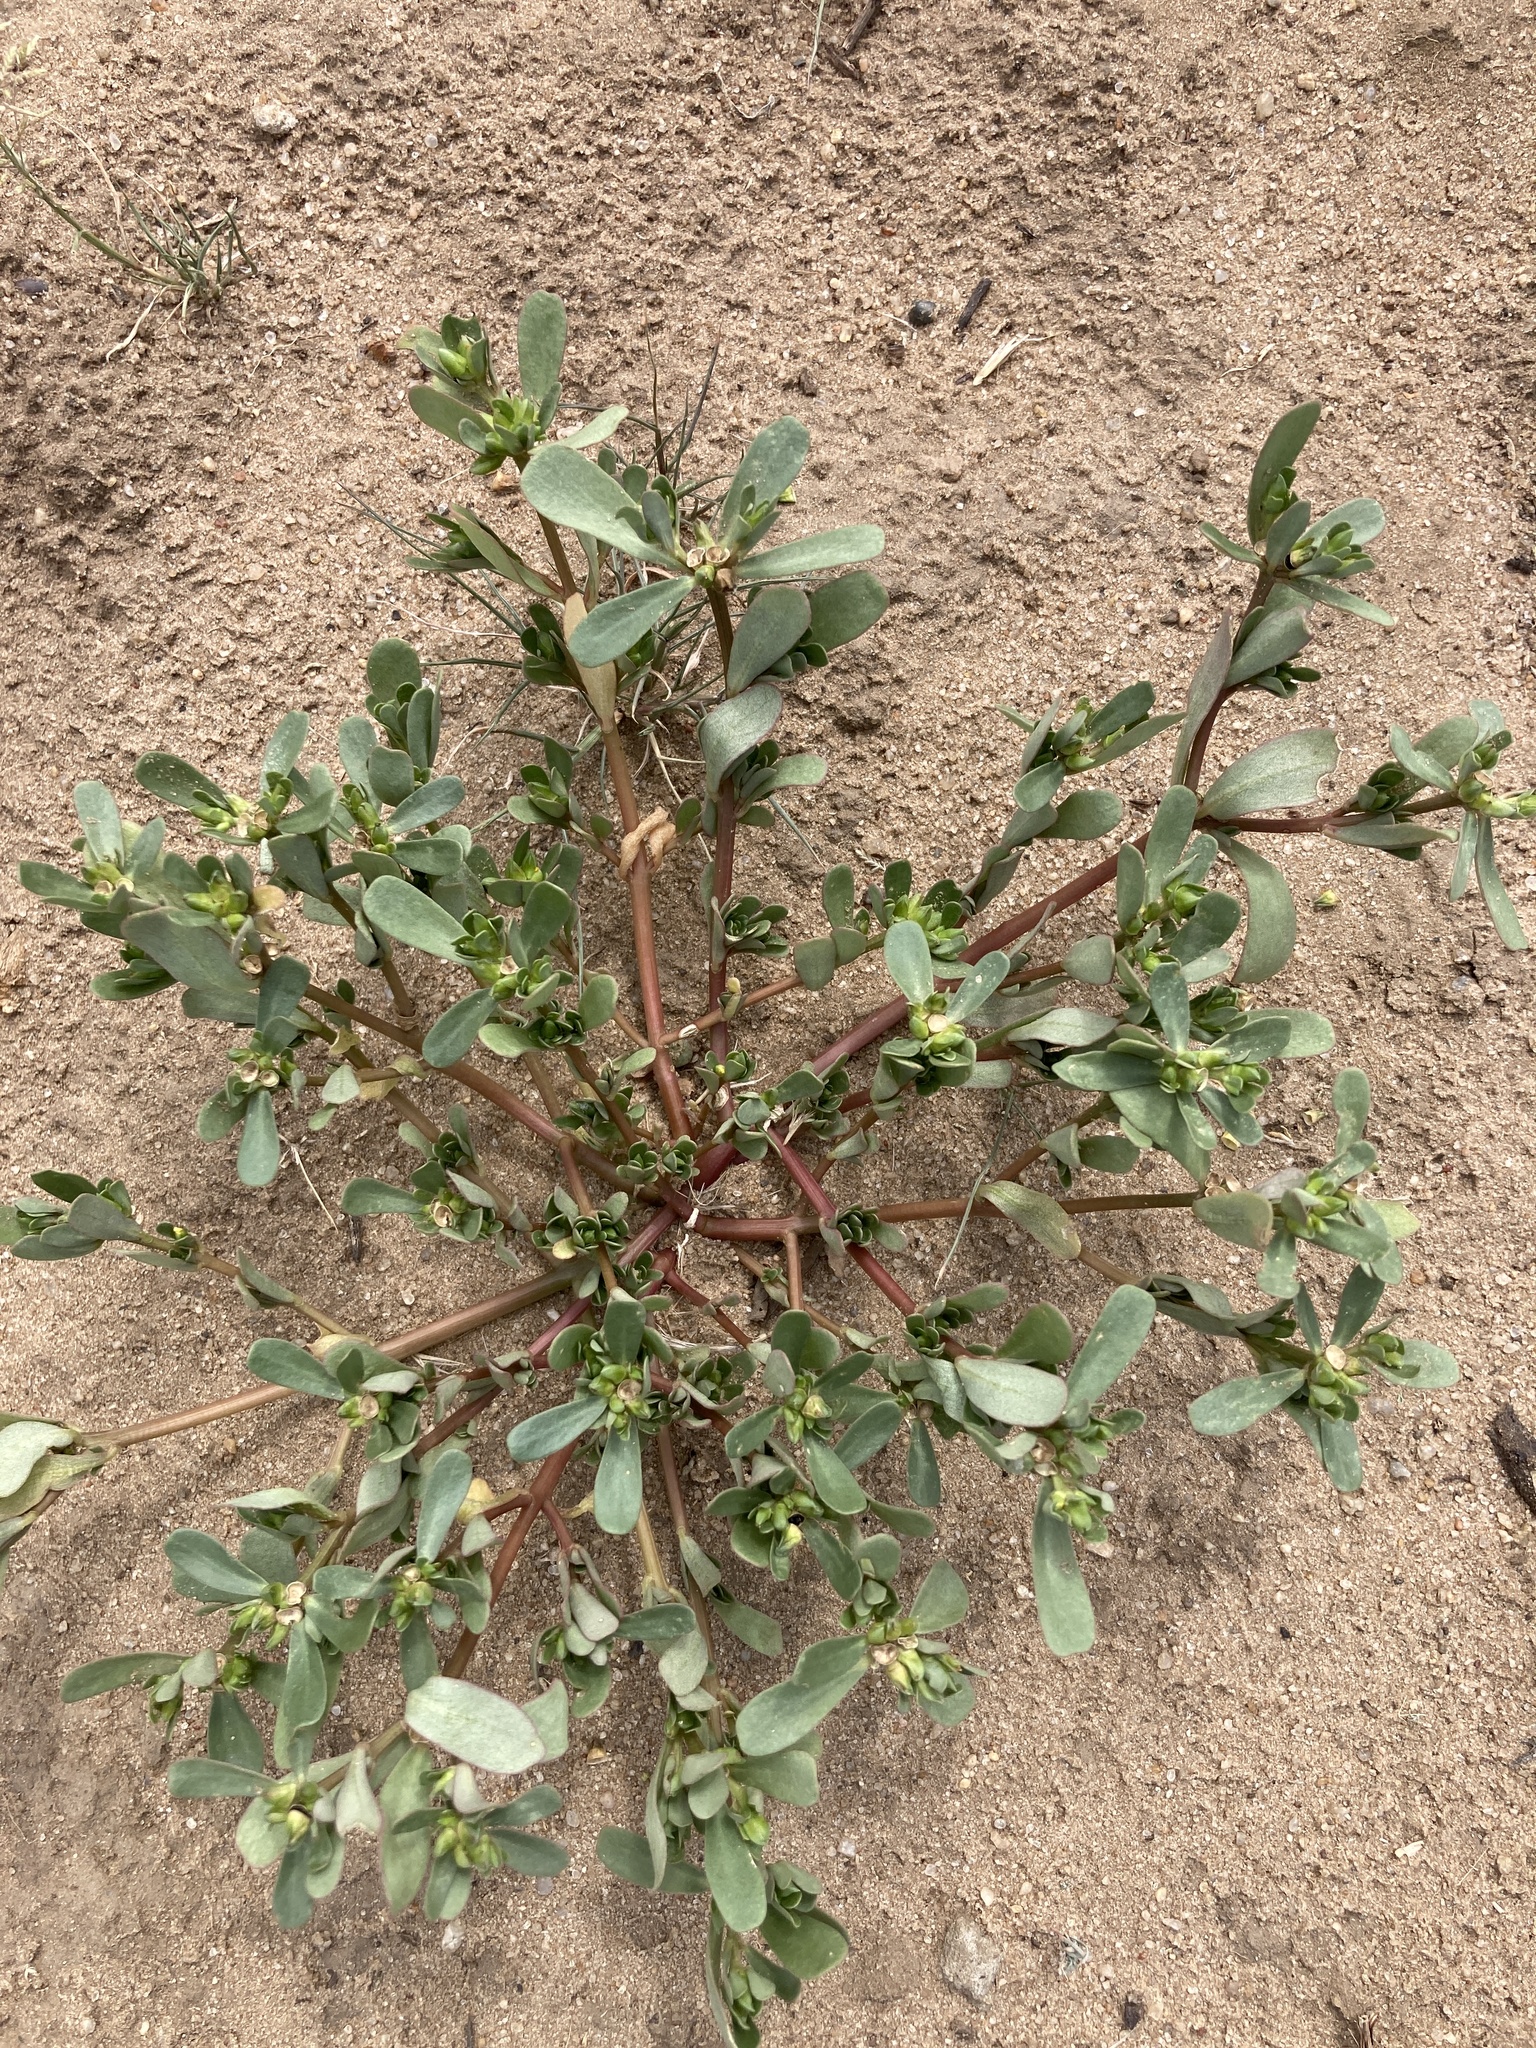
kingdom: Plantae
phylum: Tracheophyta
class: Magnoliopsida
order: Caryophyllales
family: Portulacaceae
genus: Portulaca
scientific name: Portulaca oleracea
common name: Common purslane
